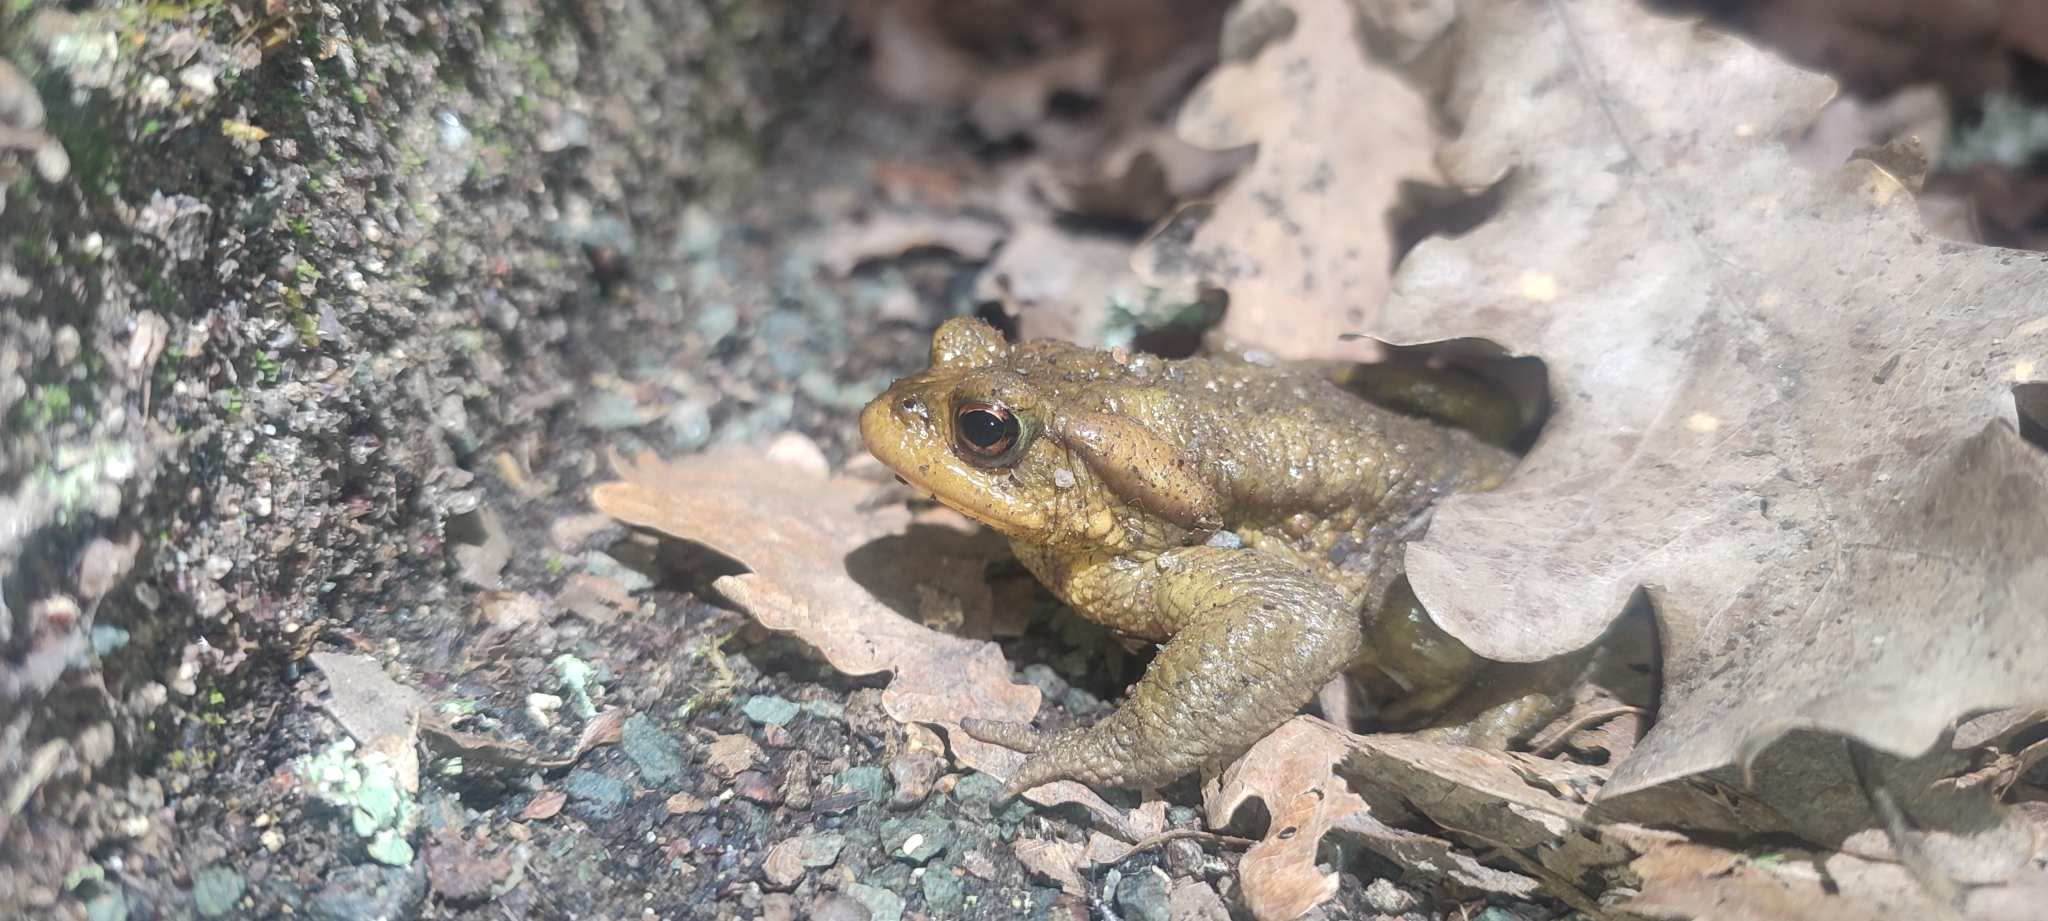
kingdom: Animalia
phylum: Chordata
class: Amphibia
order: Anura
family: Bufonidae
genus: Bufo
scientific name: Bufo spinosus
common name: Western common toad
